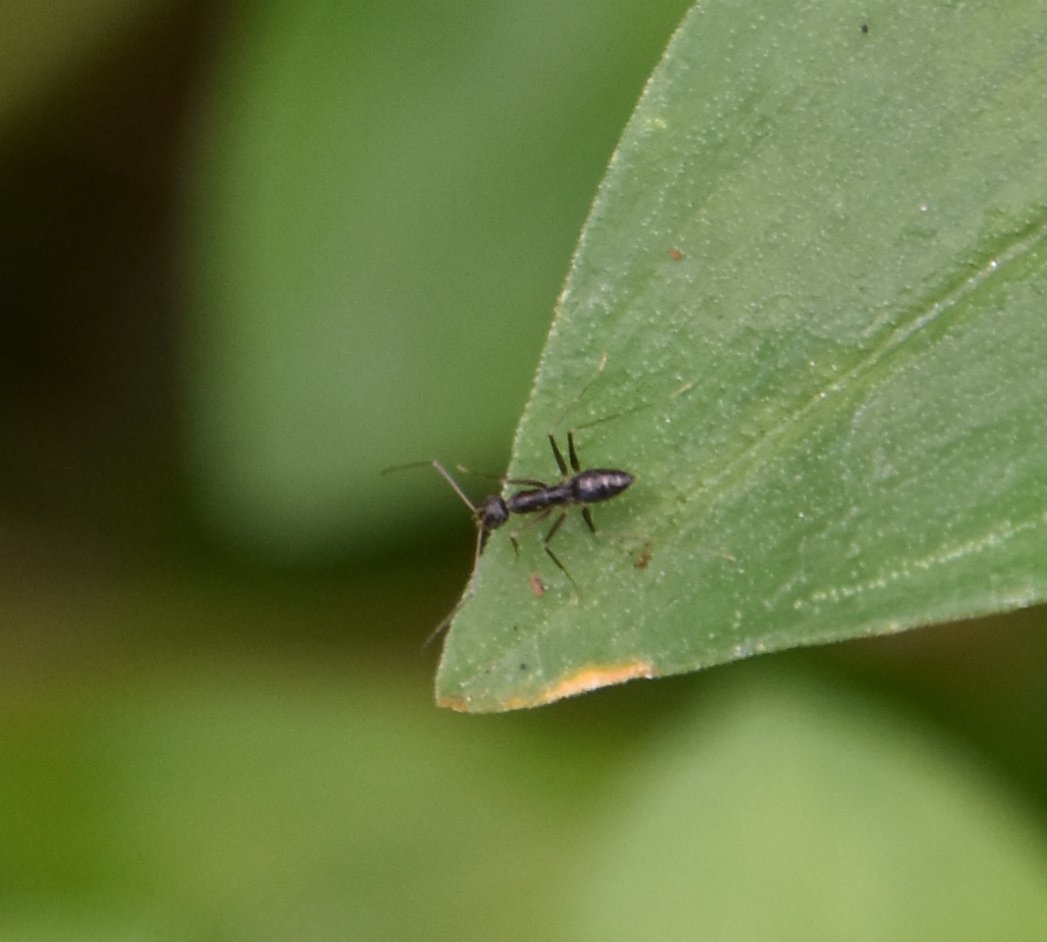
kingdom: Animalia
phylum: Arthropoda
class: Insecta
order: Hymenoptera
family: Formicidae
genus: Paratrechina
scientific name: Paratrechina longicornis
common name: Longhorned crazy ant
